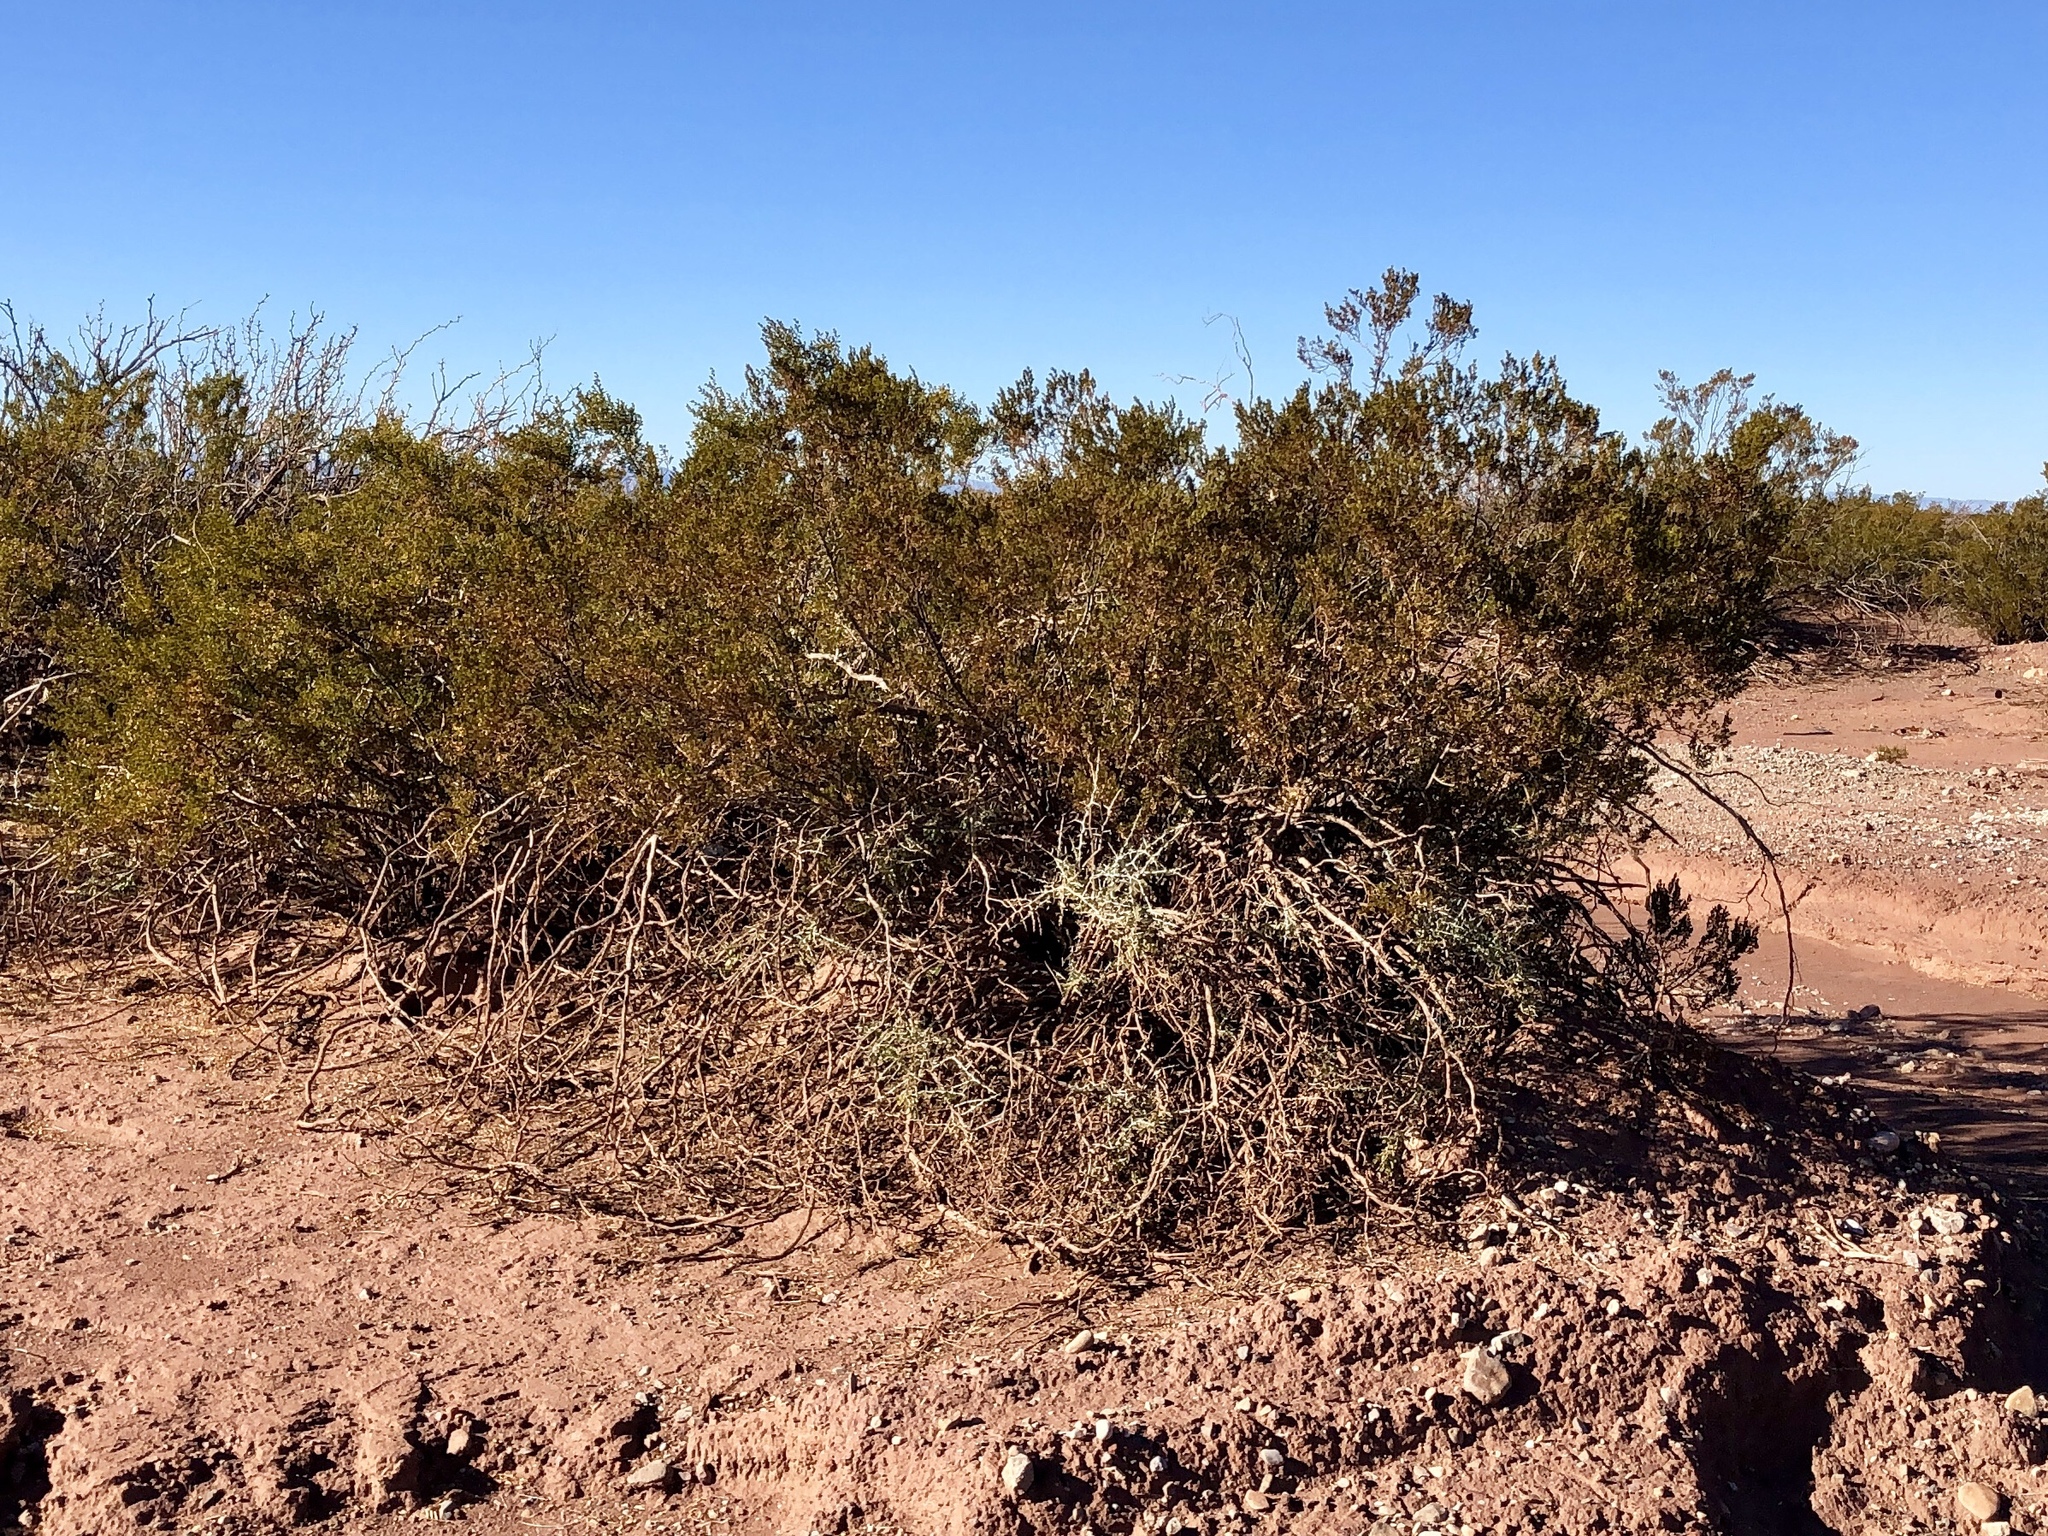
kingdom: Plantae
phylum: Tracheophyta
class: Magnoliopsida
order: Zygophyllales
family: Zygophyllaceae
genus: Larrea
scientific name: Larrea tridentata
